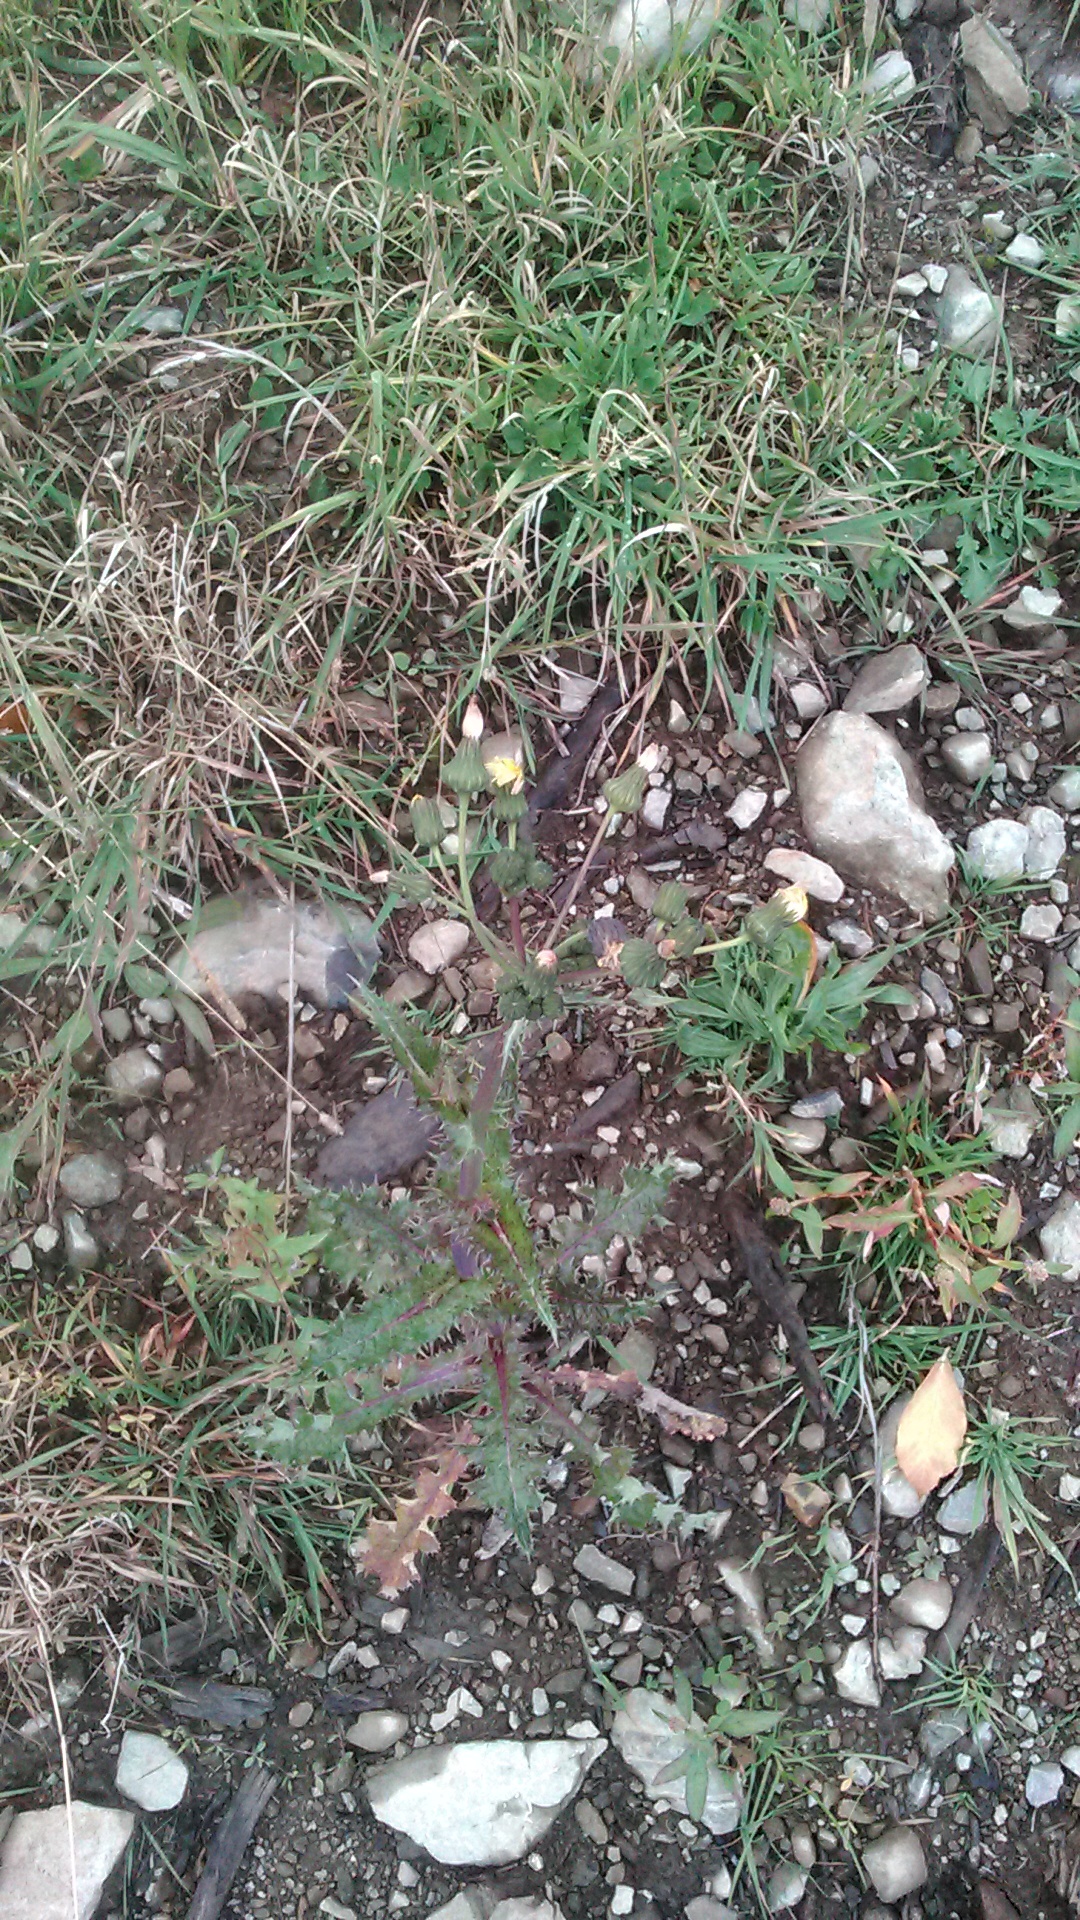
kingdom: Plantae
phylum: Tracheophyta
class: Magnoliopsida
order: Asterales
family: Asteraceae
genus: Sonchus
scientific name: Sonchus asper
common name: Prickly sow-thistle
